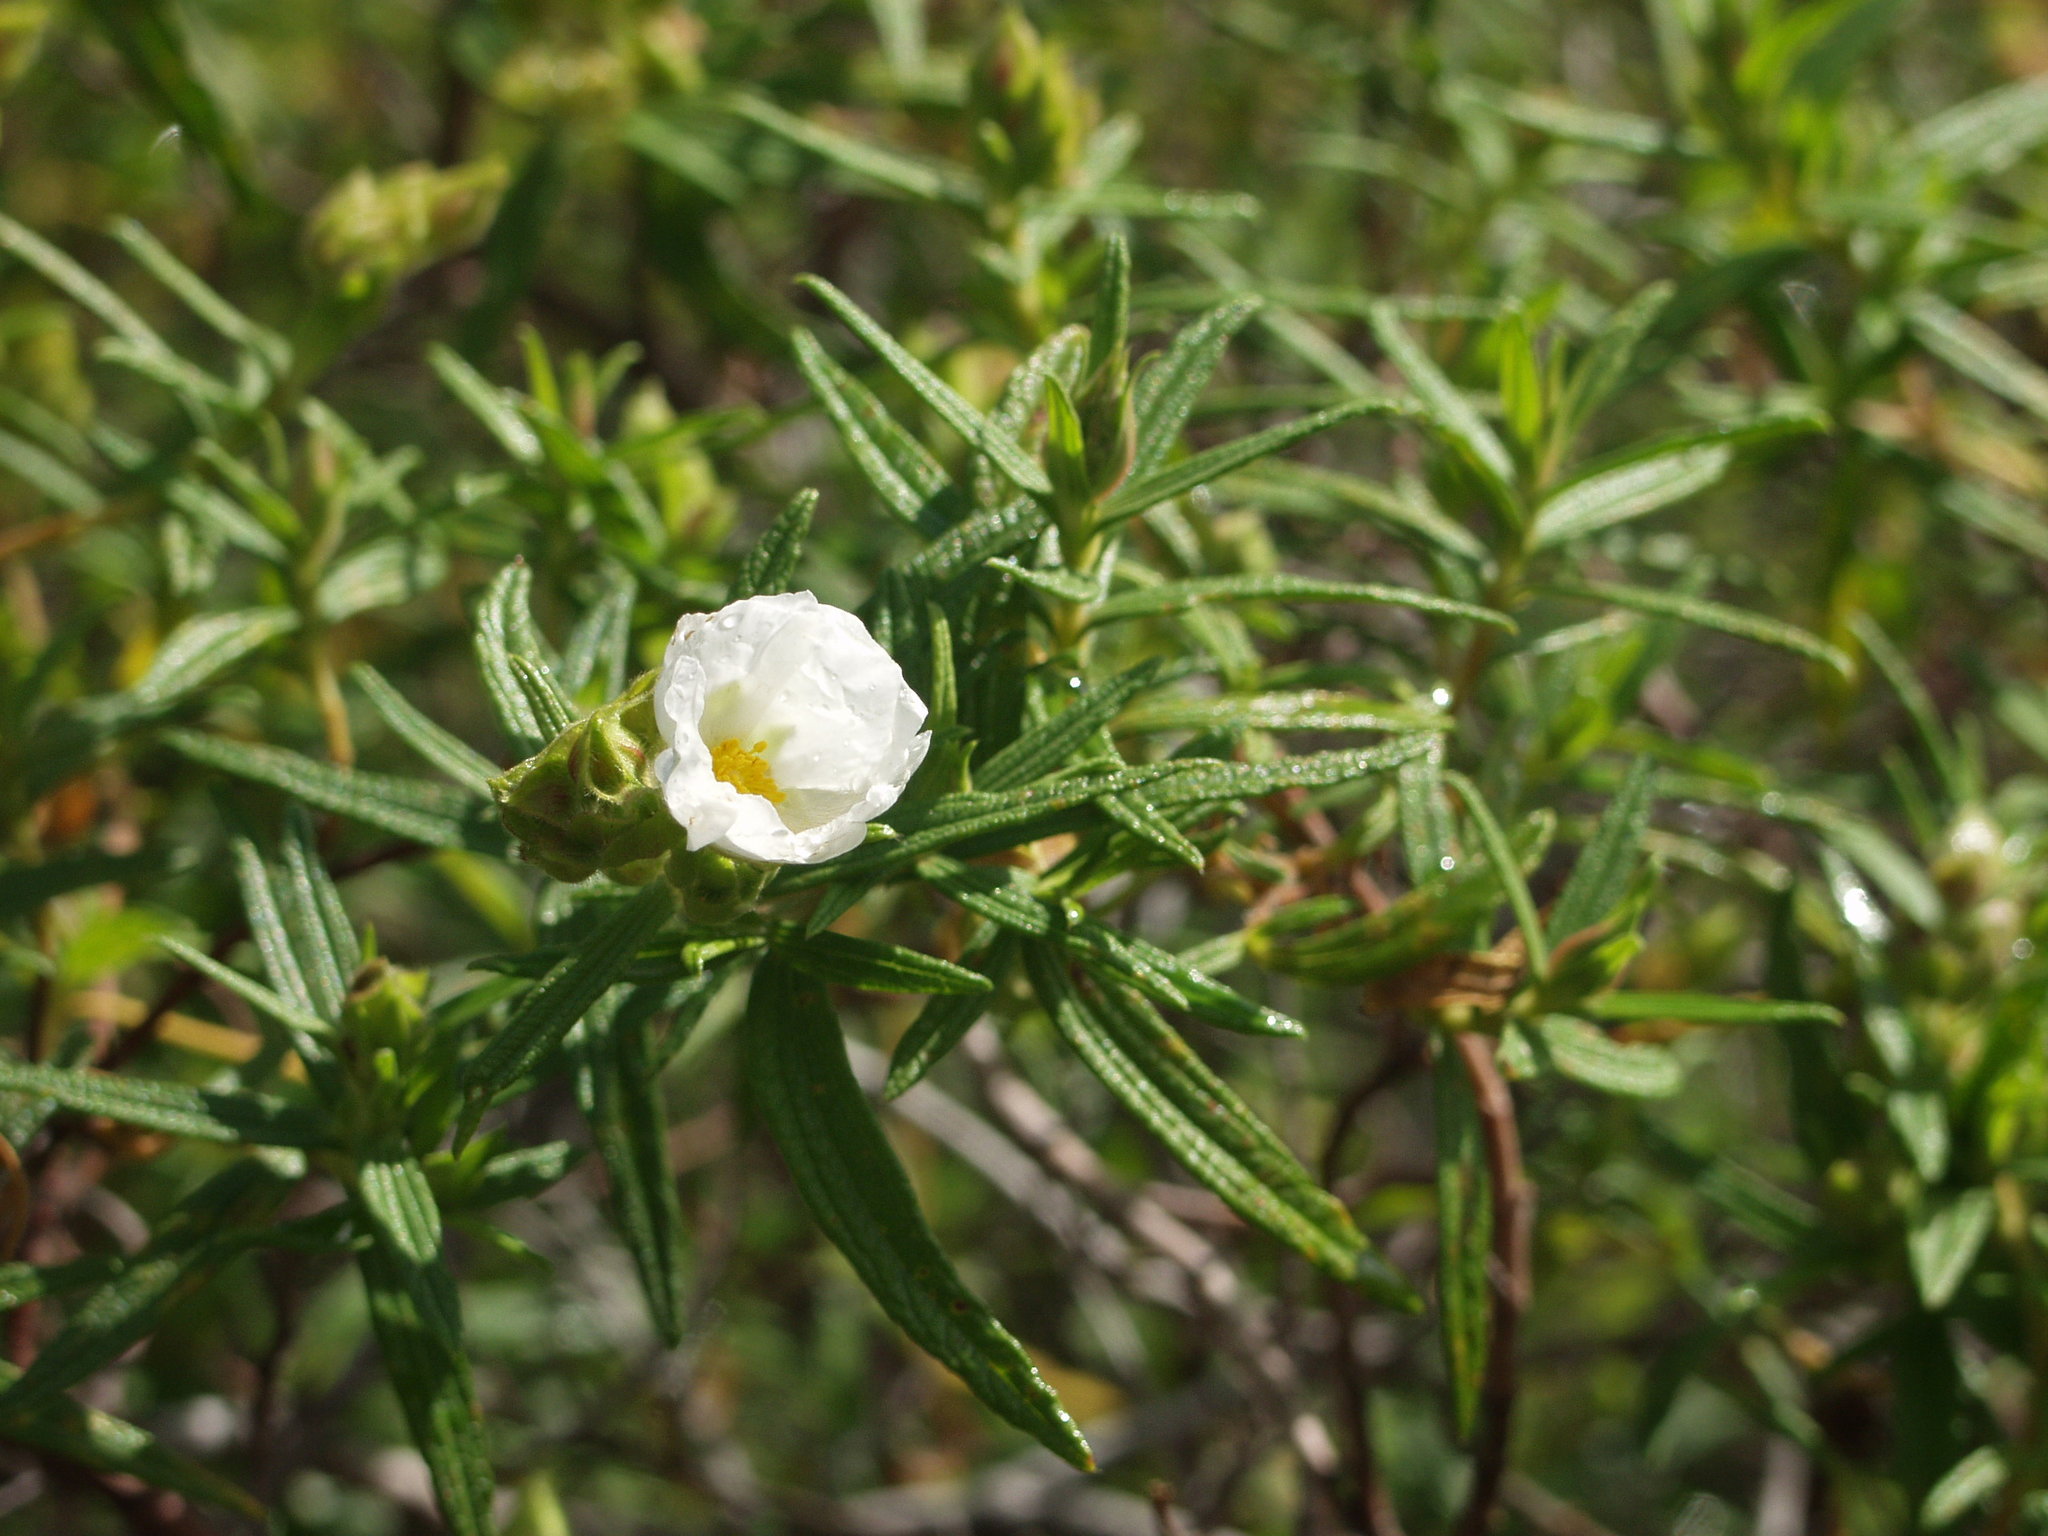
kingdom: Plantae
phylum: Tracheophyta
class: Magnoliopsida
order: Malvales
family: Cistaceae
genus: Cistus
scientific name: Cistus monspeliensis
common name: Montpelier cistus
